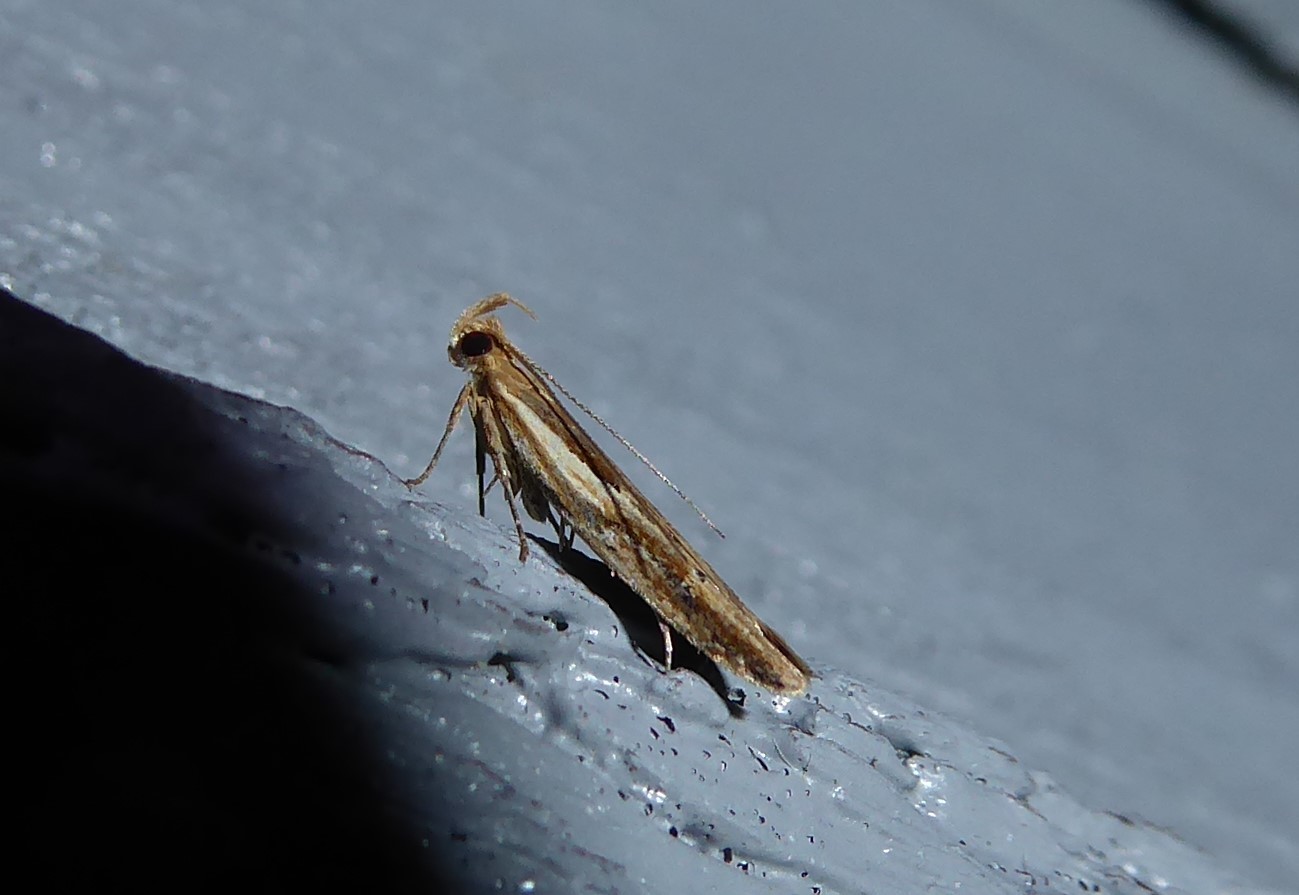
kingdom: Animalia
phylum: Arthropoda
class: Insecta
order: Lepidoptera
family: Depressariidae
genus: Eutorna
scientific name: Eutorna symmorpha
